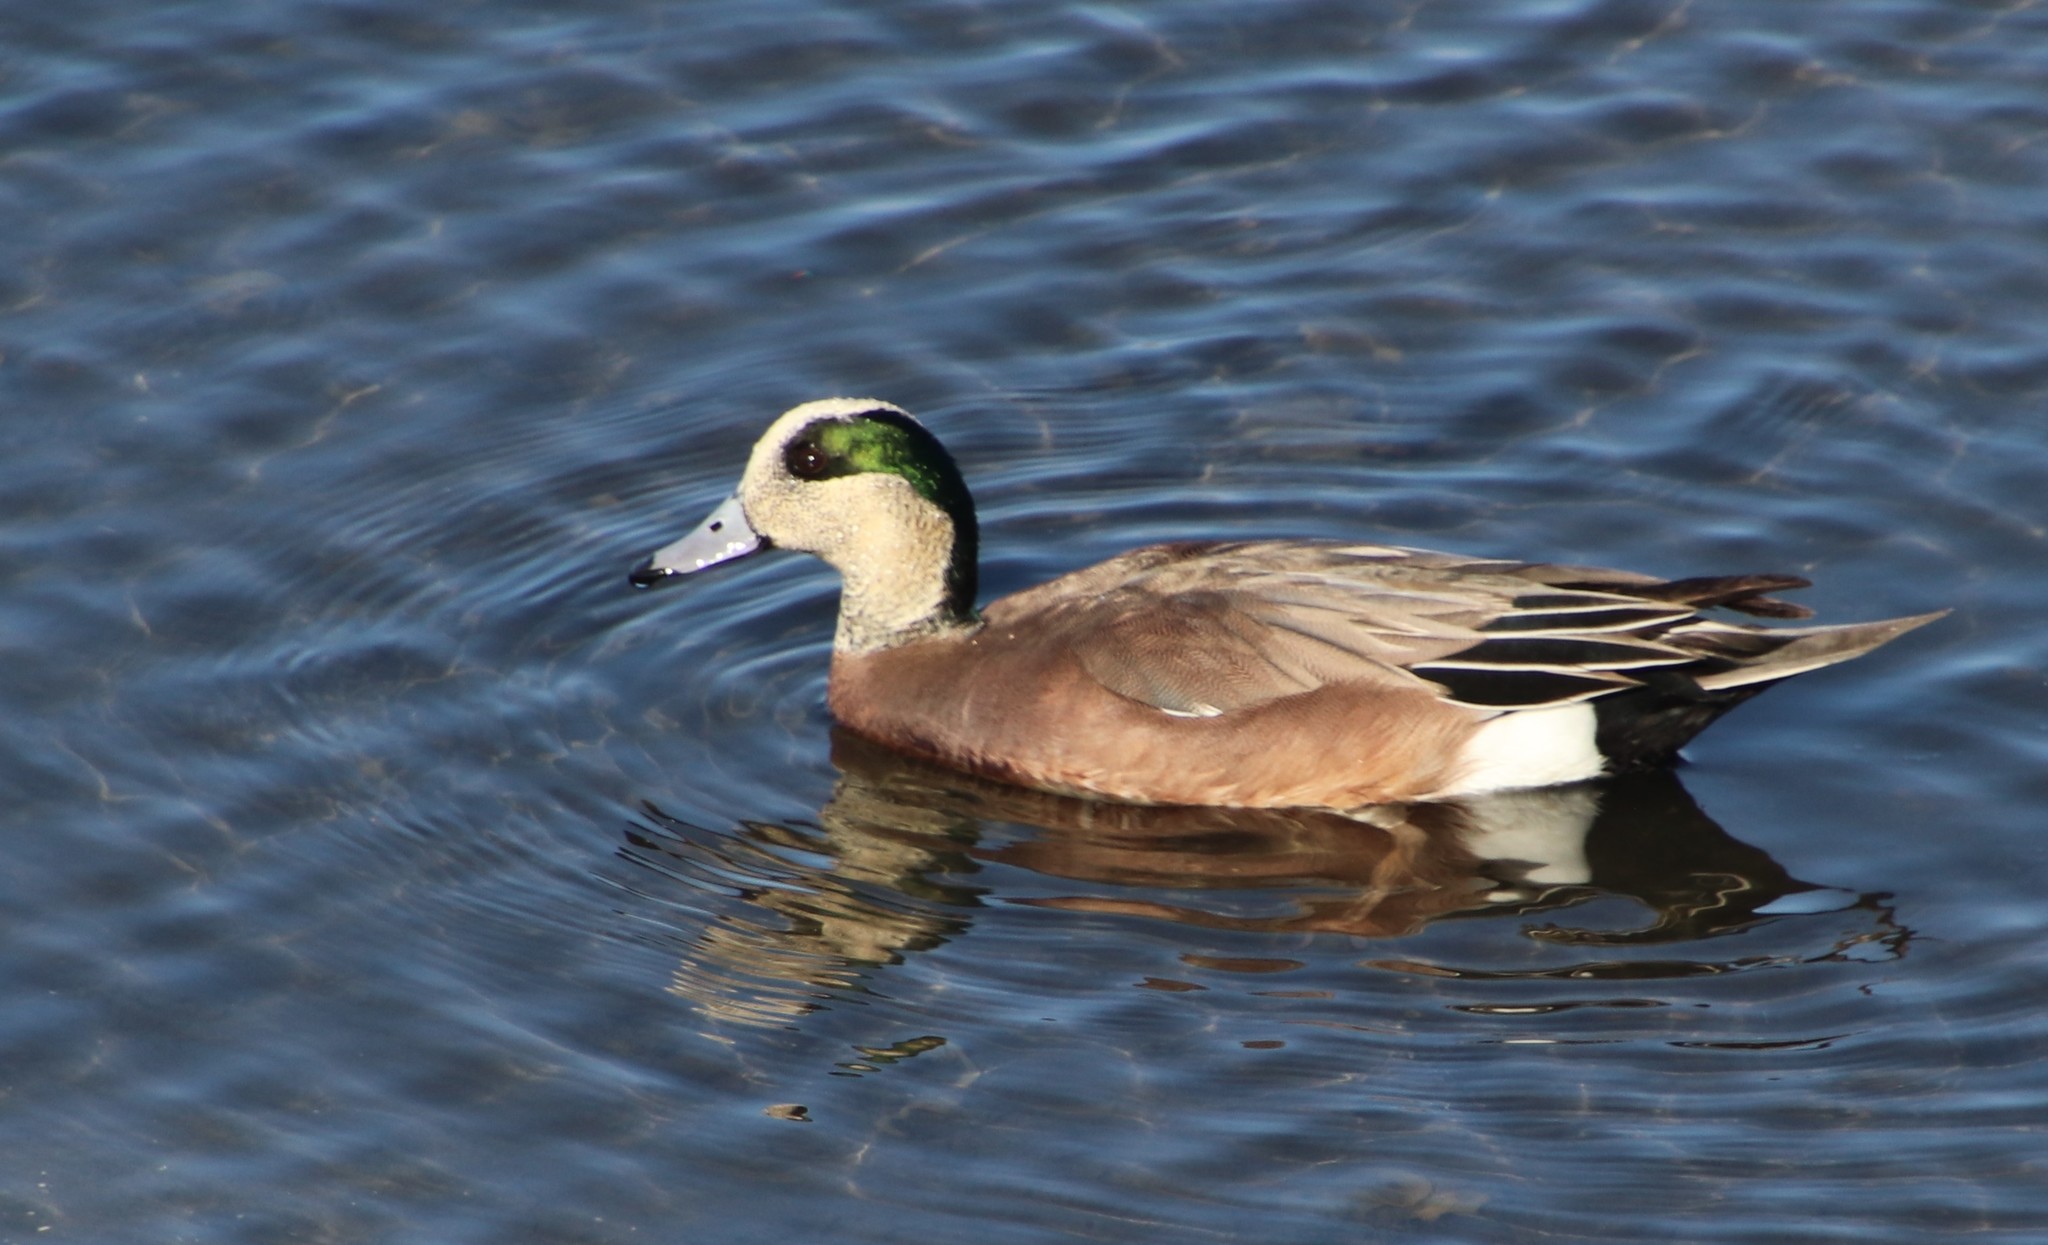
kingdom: Animalia
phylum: Chordata
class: Aves
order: Anseriformes
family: Anatidae
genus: Mareca
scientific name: Mareca americana
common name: American wigeon
